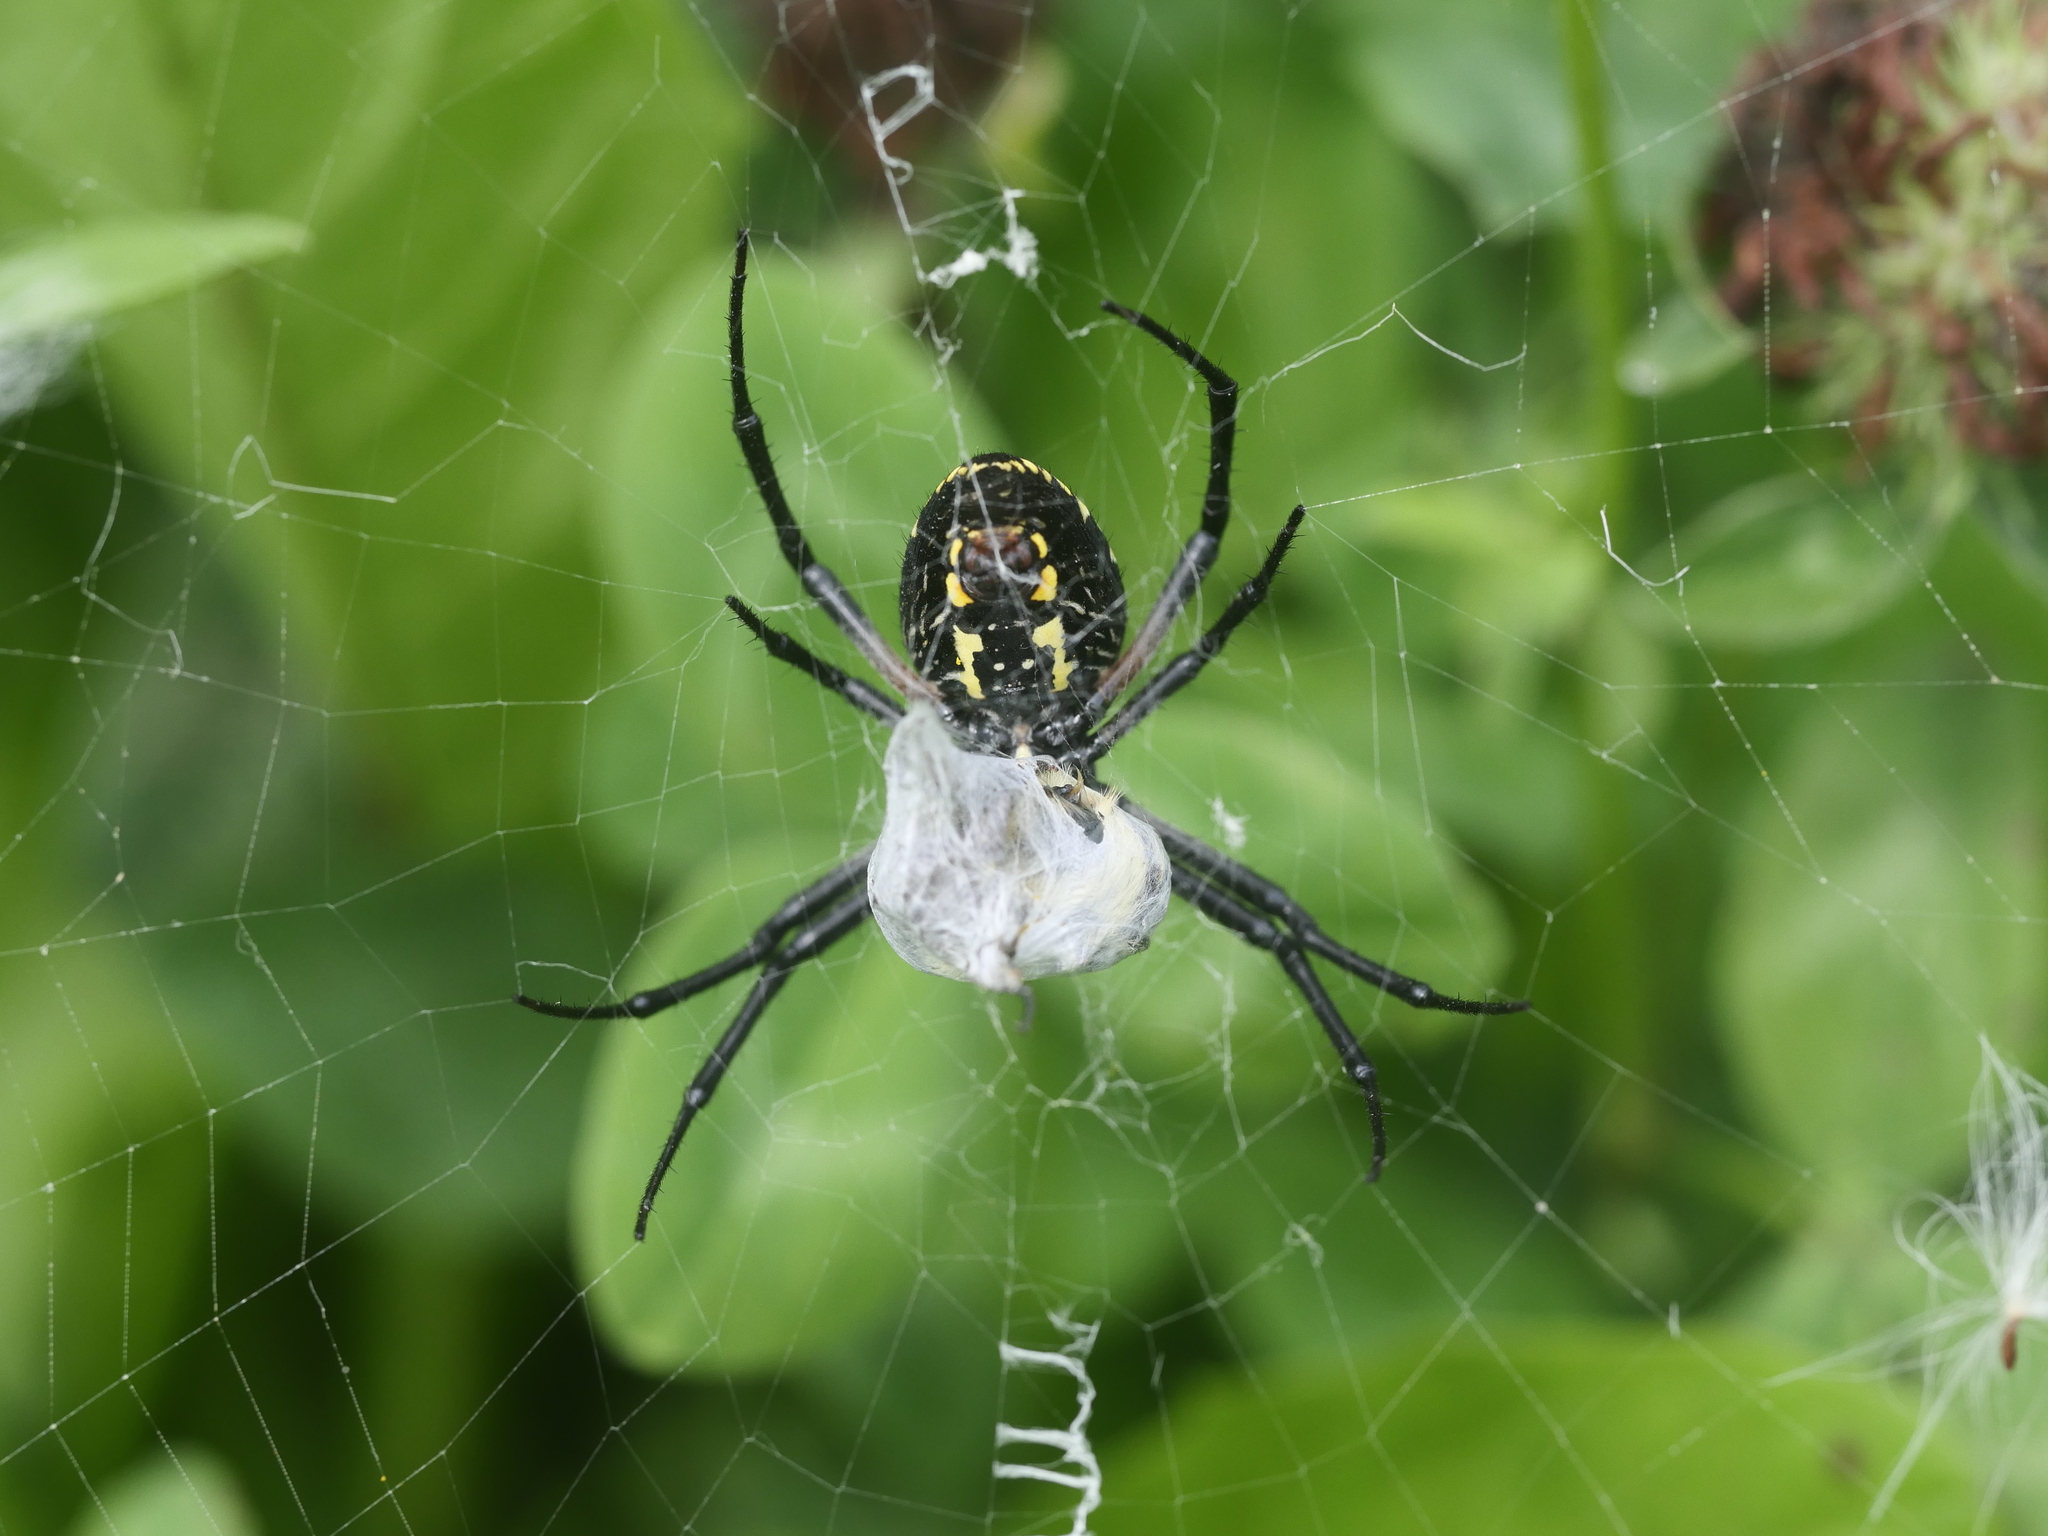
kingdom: Animalia
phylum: Arthropoda
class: Arachnida
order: Araneae
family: Araneidae
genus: Argiope
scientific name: Argiope aurantia
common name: Orb weavers
